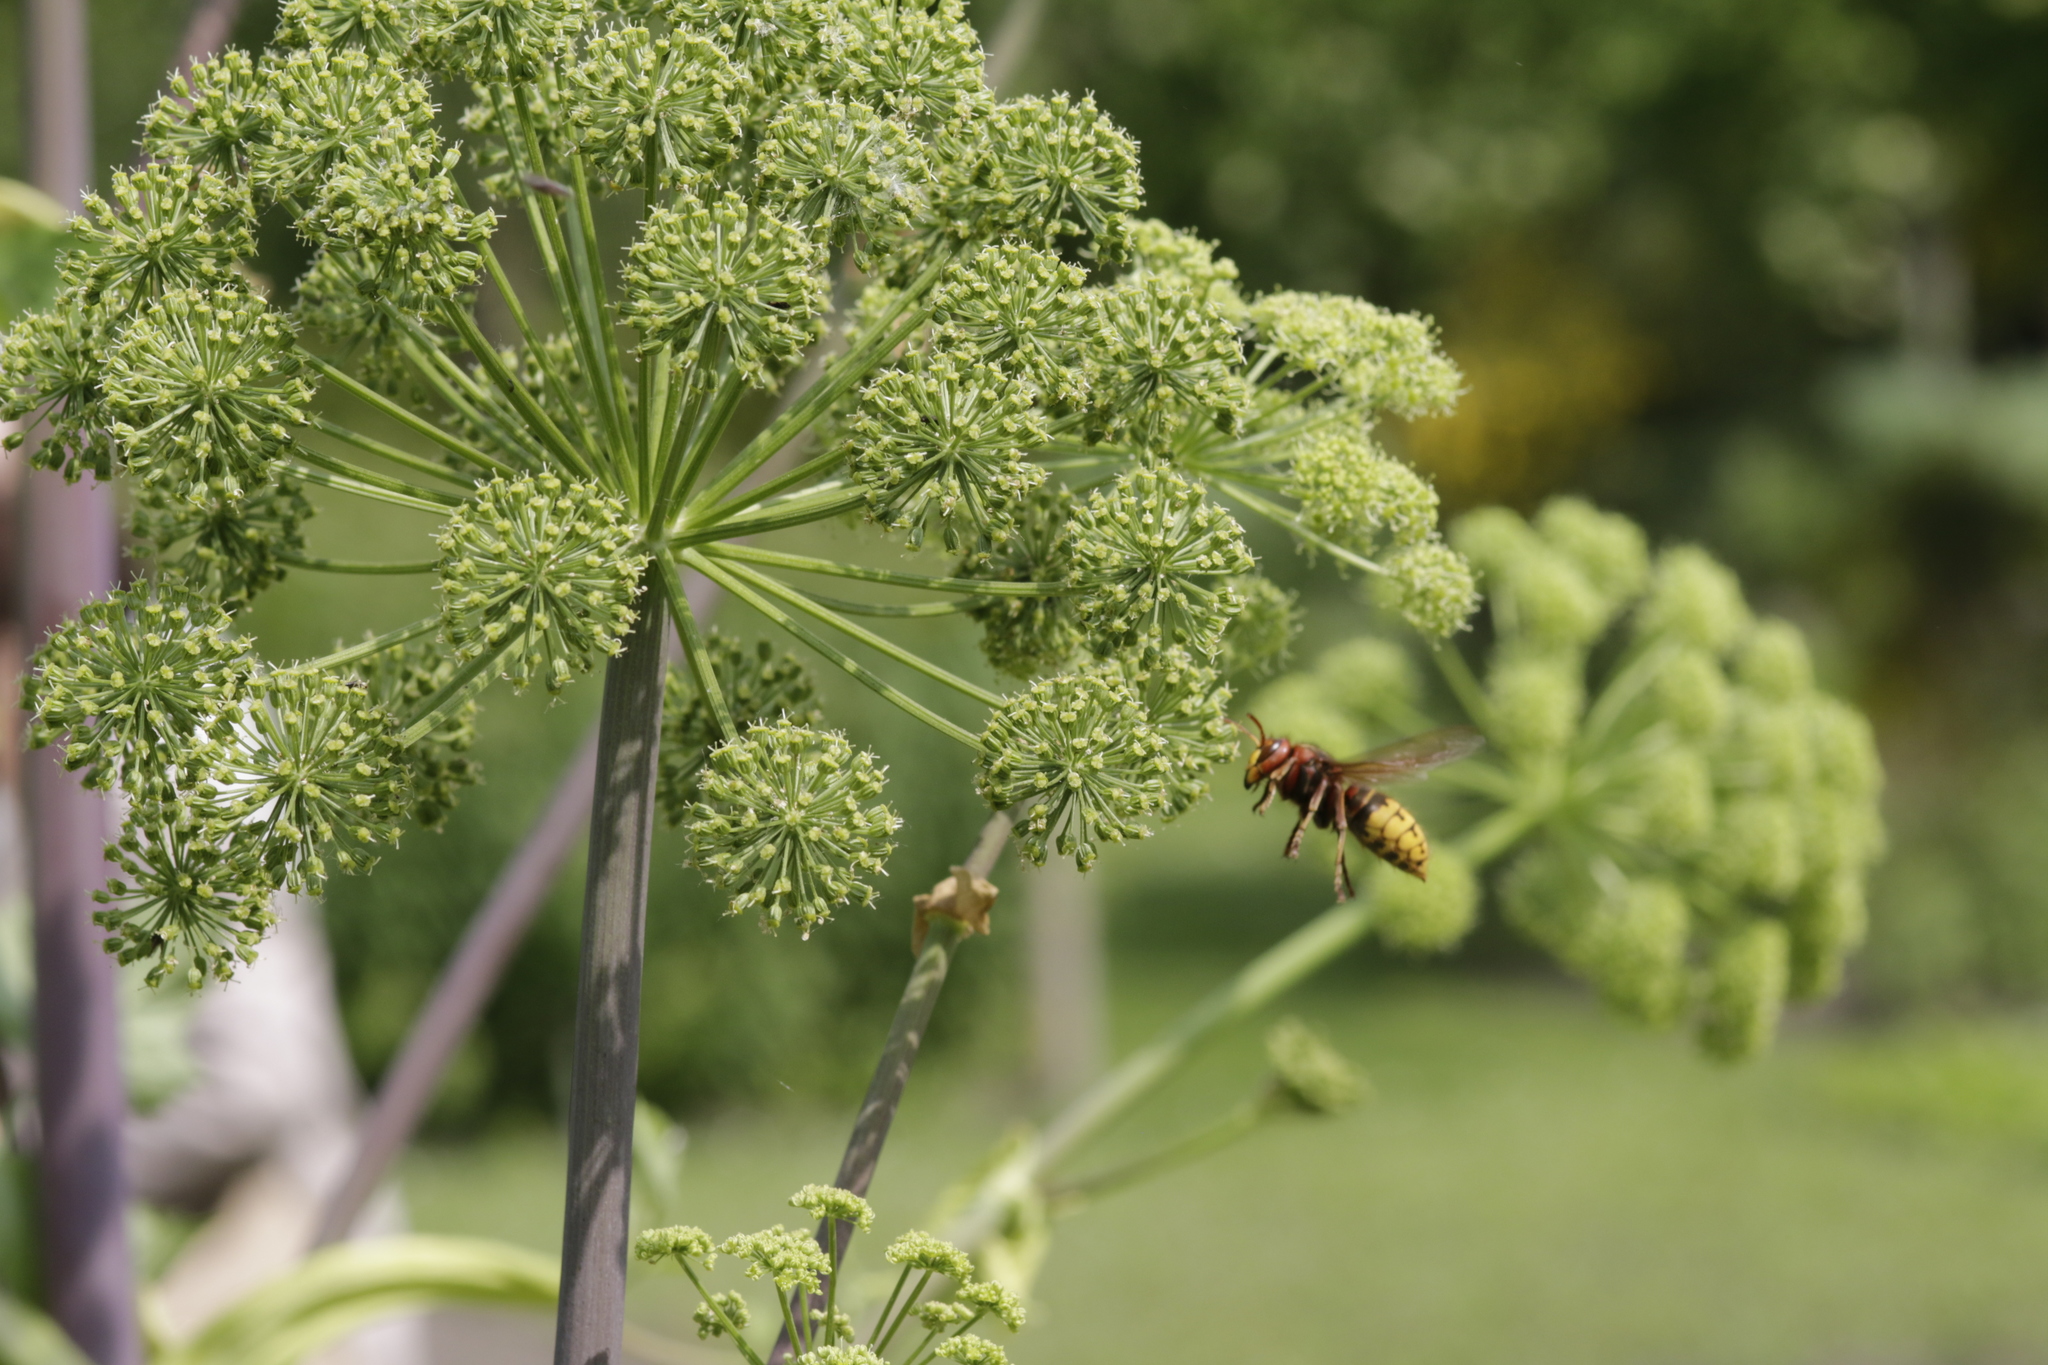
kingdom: Animalia
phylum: Arthropoda
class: Insecta
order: Hymenoptera
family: Vespidae
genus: Vespa
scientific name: Vespa crabro
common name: Hornet
